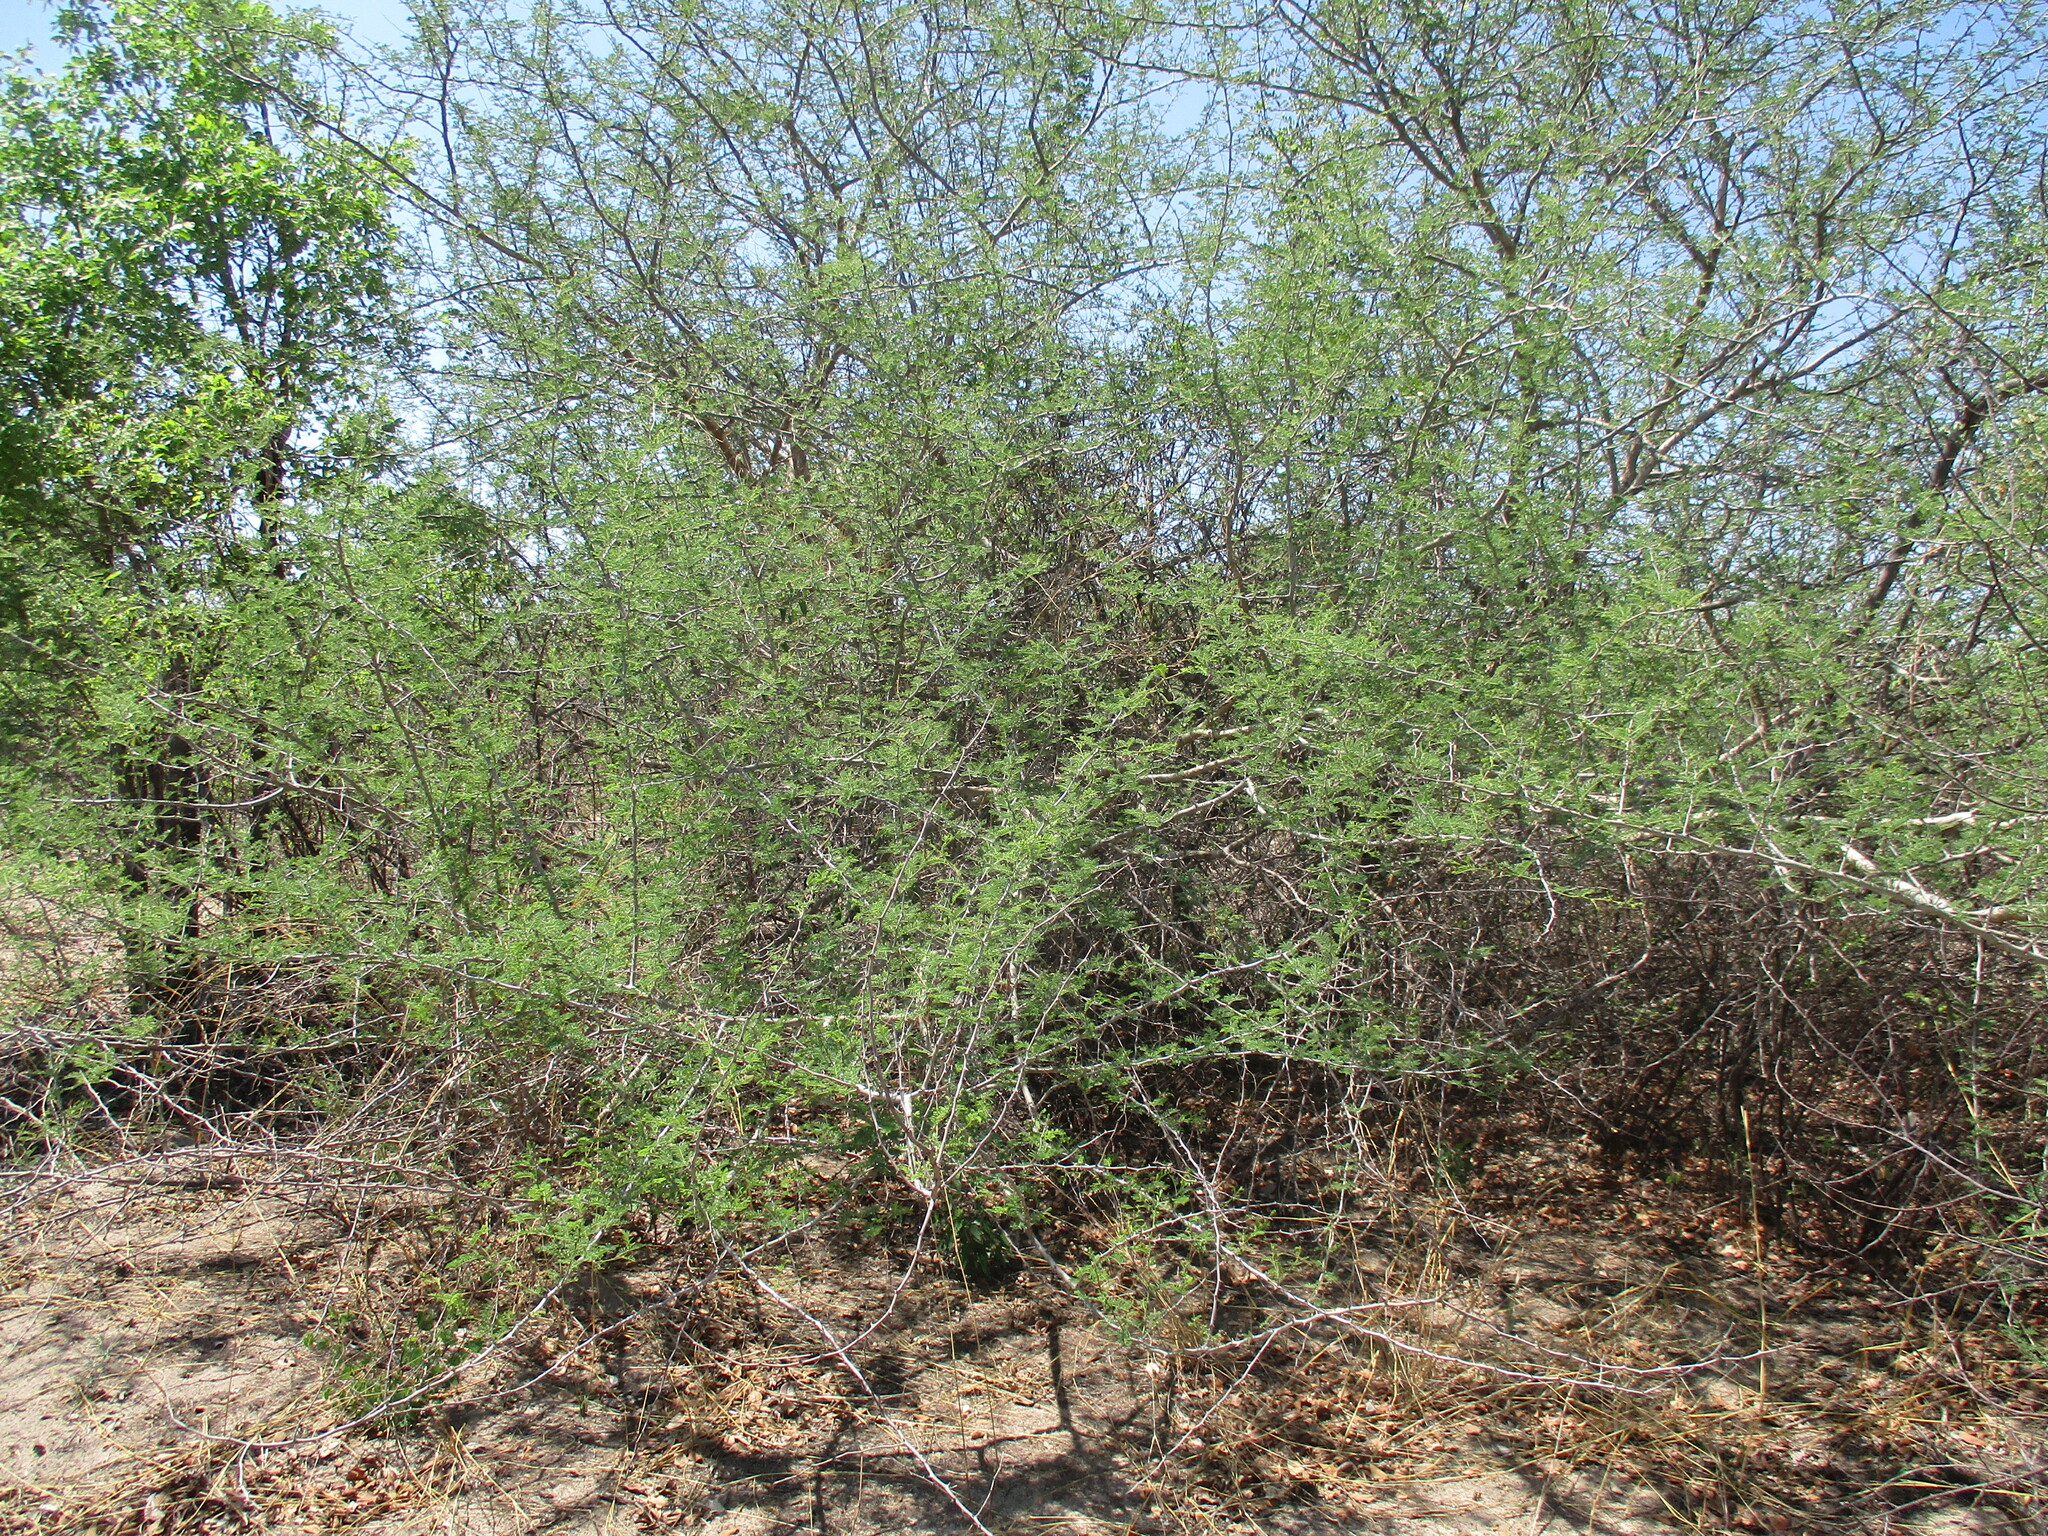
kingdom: Plantae
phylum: Tracheophyta
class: Magnoliopsida
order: Fabales
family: Fabaceae
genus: Senegalia
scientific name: Senegalia fleckii
